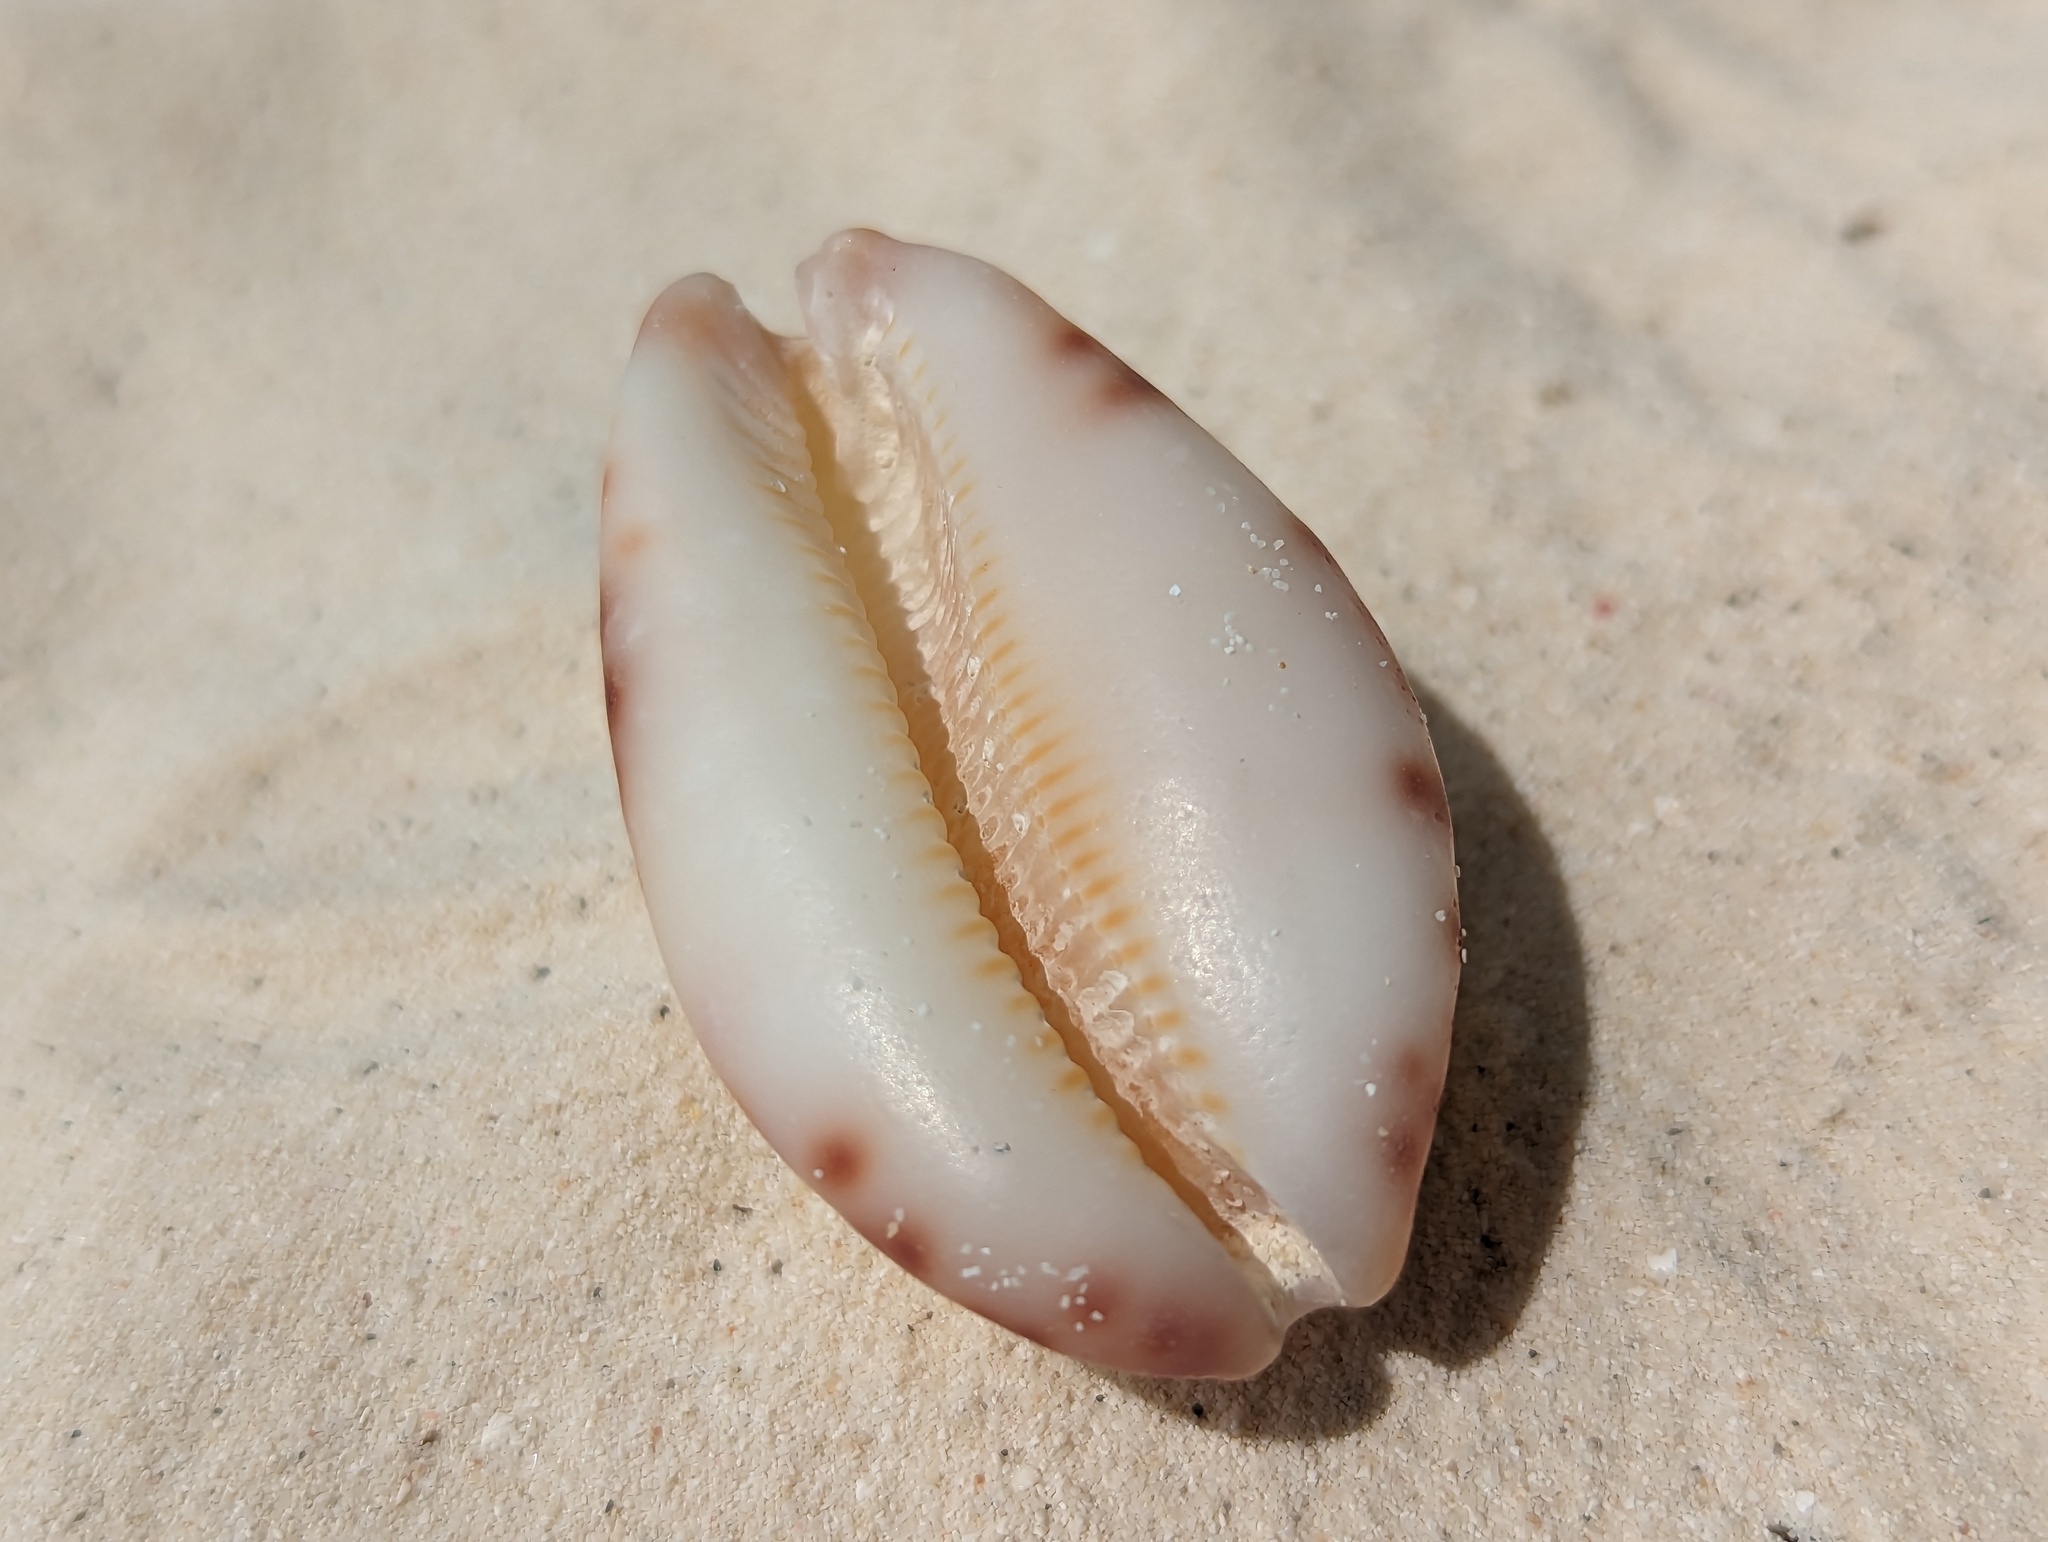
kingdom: Animalia
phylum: Mollusca
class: Gastropoda
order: Littorinimorpha
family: Cypraeidae
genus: Mauritia
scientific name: Mauritia histrio
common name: Harlequin cowrie
